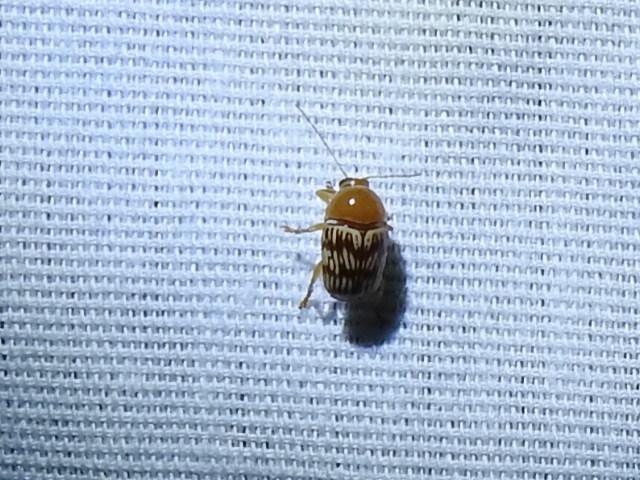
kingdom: Animalia
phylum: Arthropoda
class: Insecta
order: Coleoptera
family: Chrysomelidae
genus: Cryptocephalus
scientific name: Cryptocephalus fulguratus
